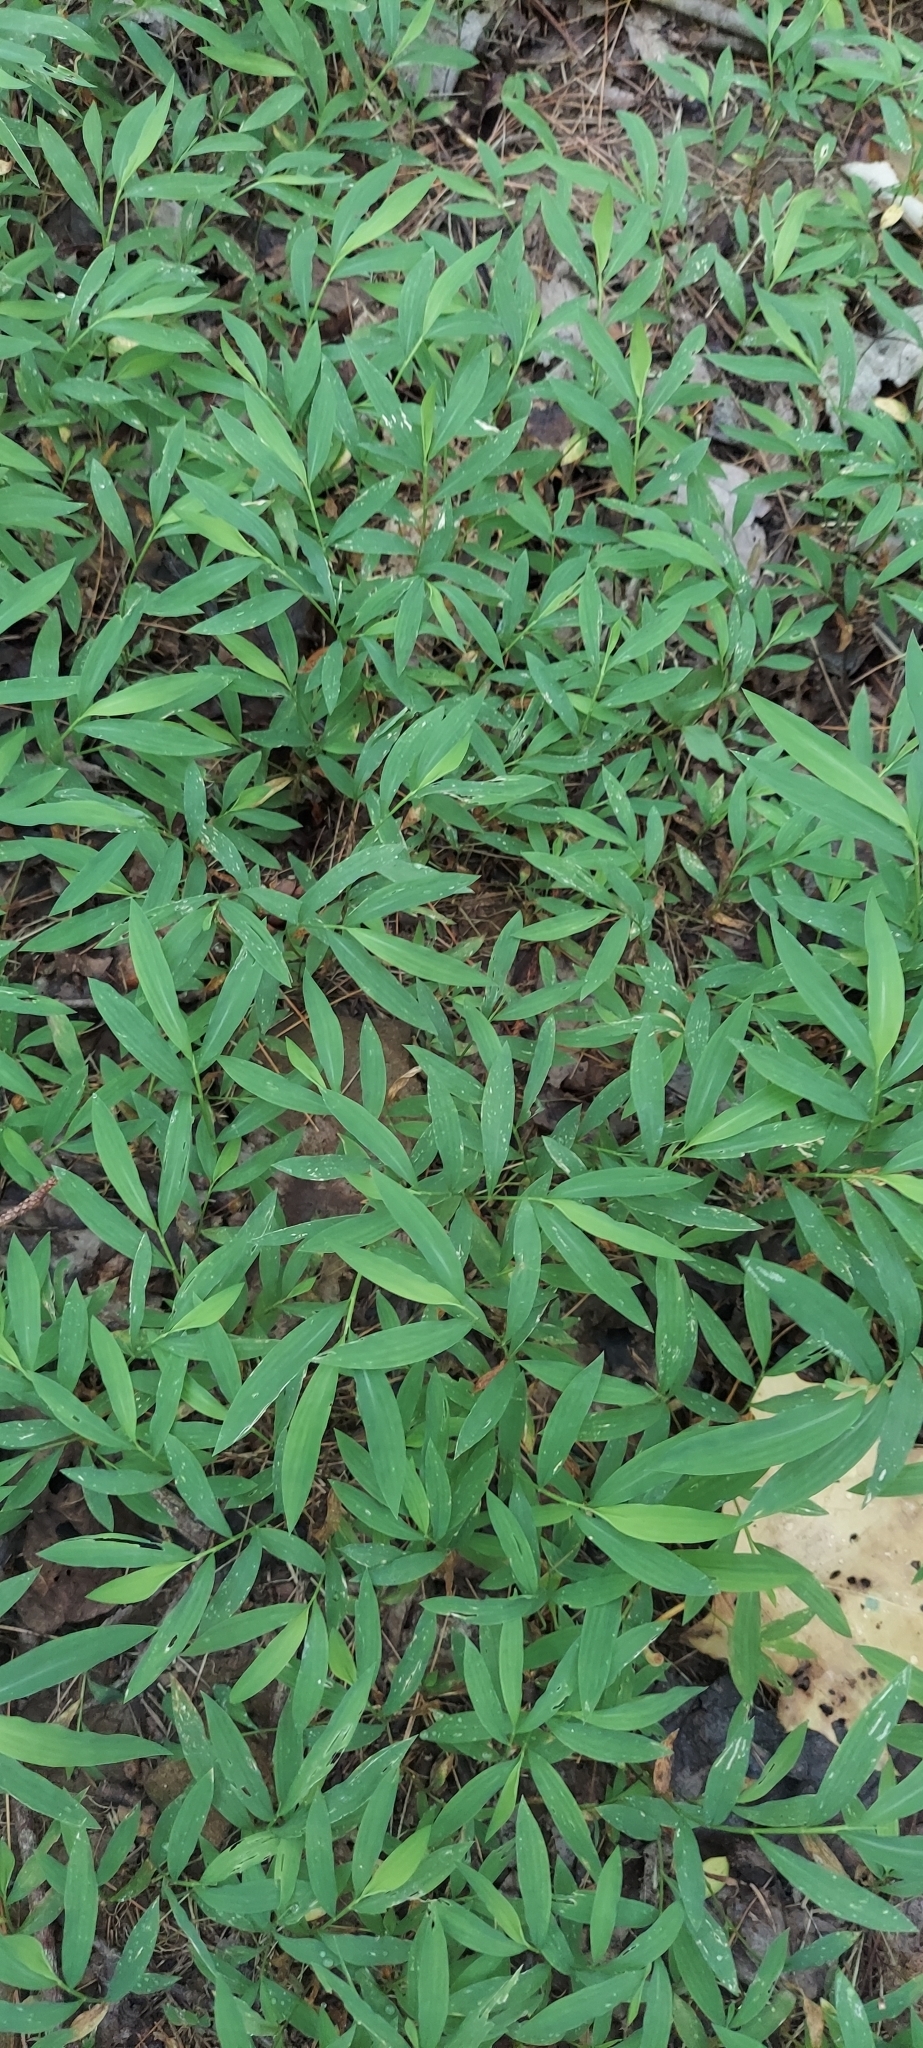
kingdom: Plantae
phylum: Tracheophyta
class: Liliopsida
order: Poales
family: Poaceae
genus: Microstegium
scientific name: Microstegium vimineum
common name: Japanese stiltgrass
